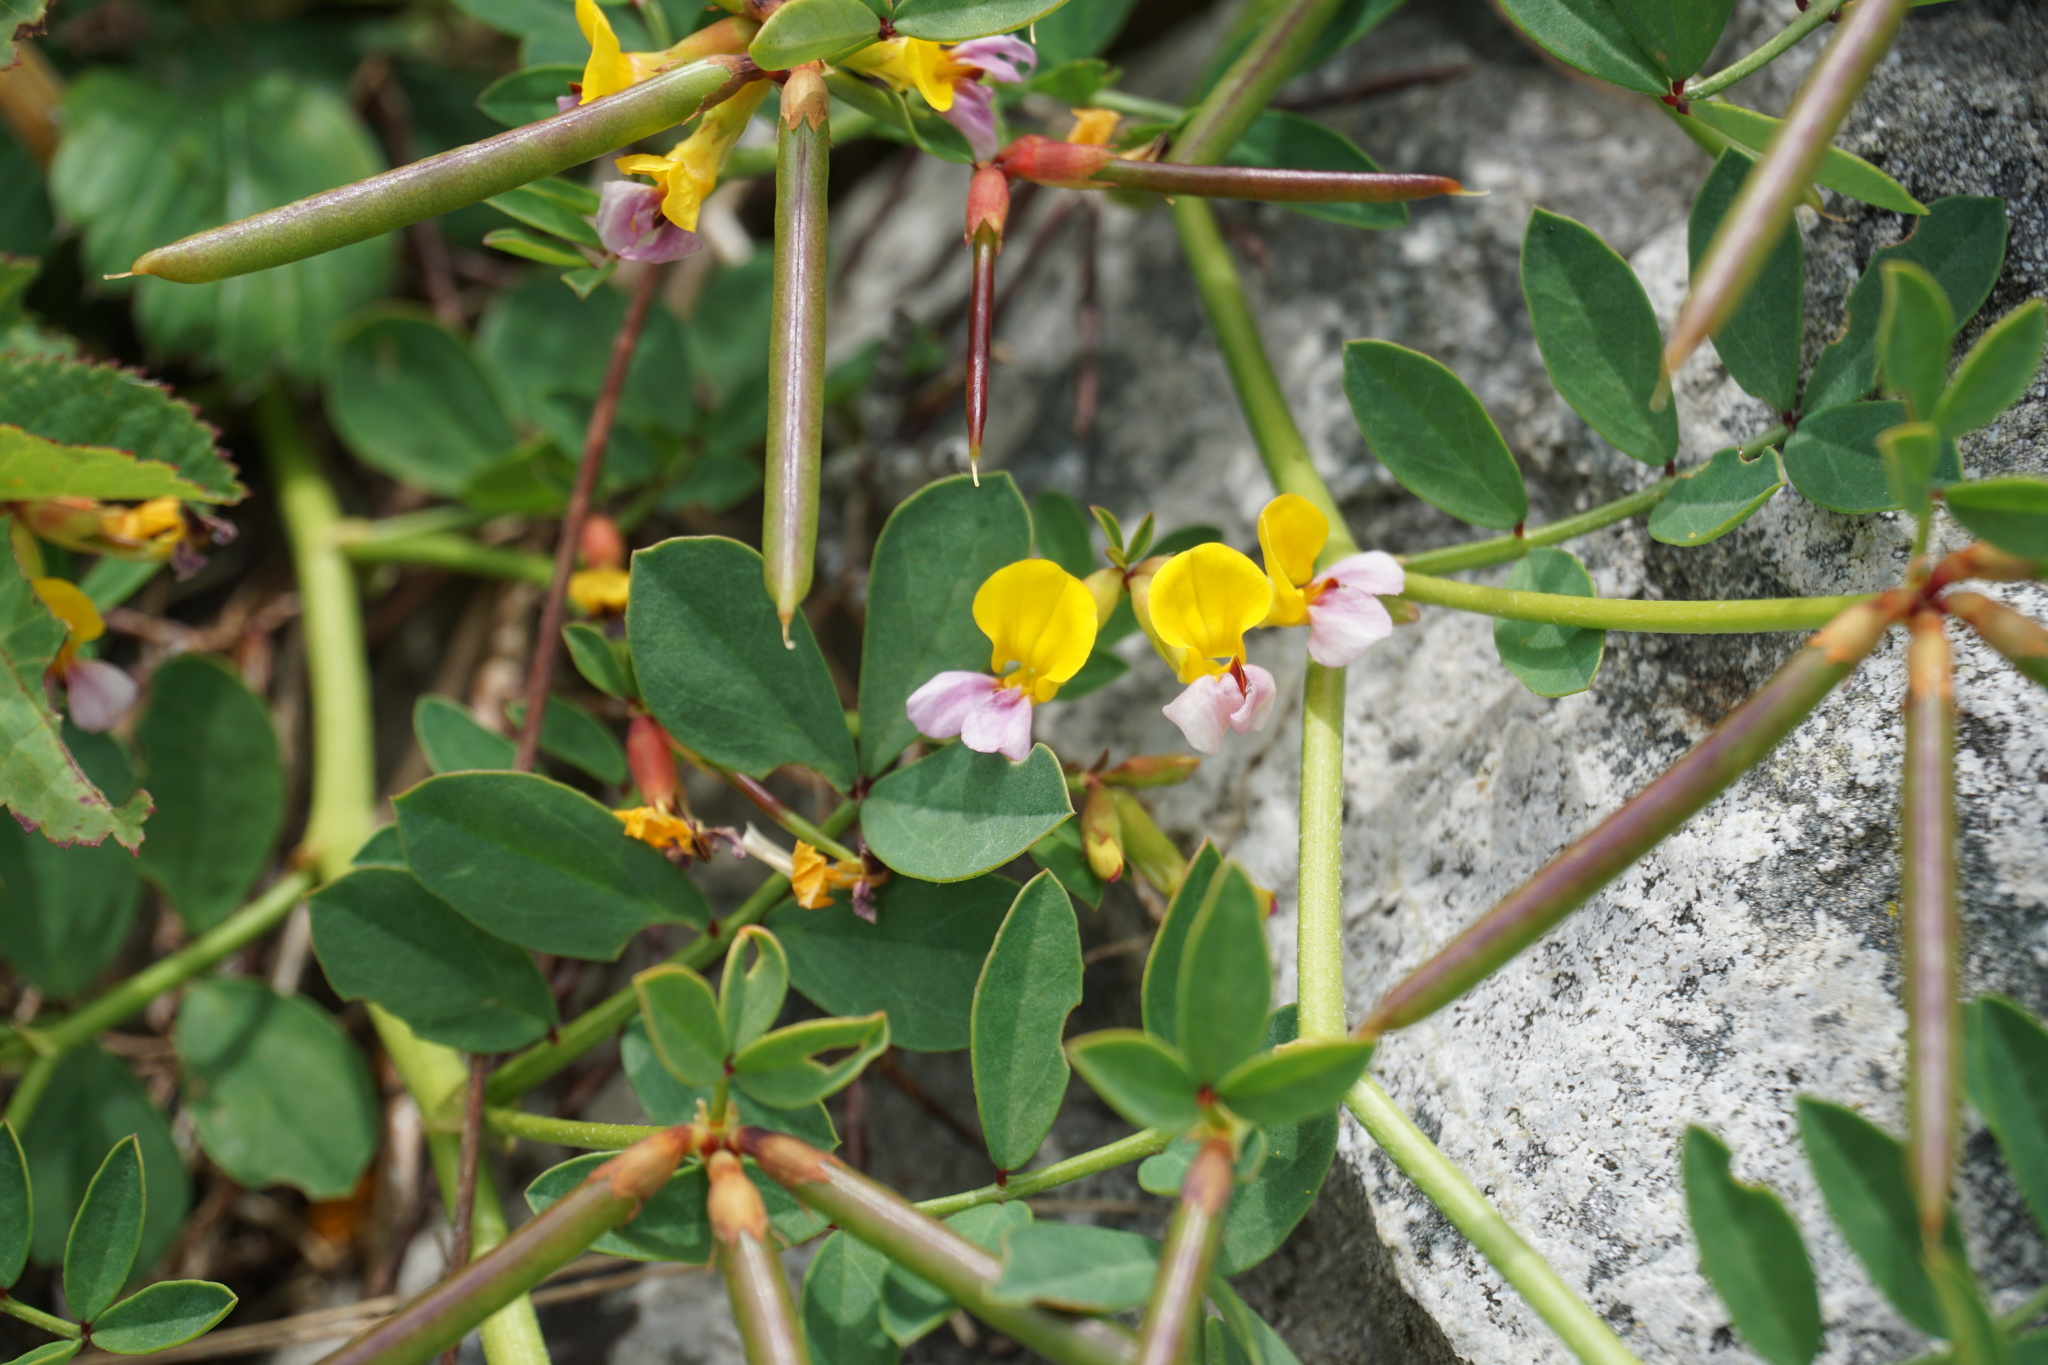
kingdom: Plantae
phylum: Tracheophyta
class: Magnoliopsida
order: Fabales
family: Fabaceae
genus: Hosackia
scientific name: Hosackia gracilis
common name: Seaside bird's-foot lotus
